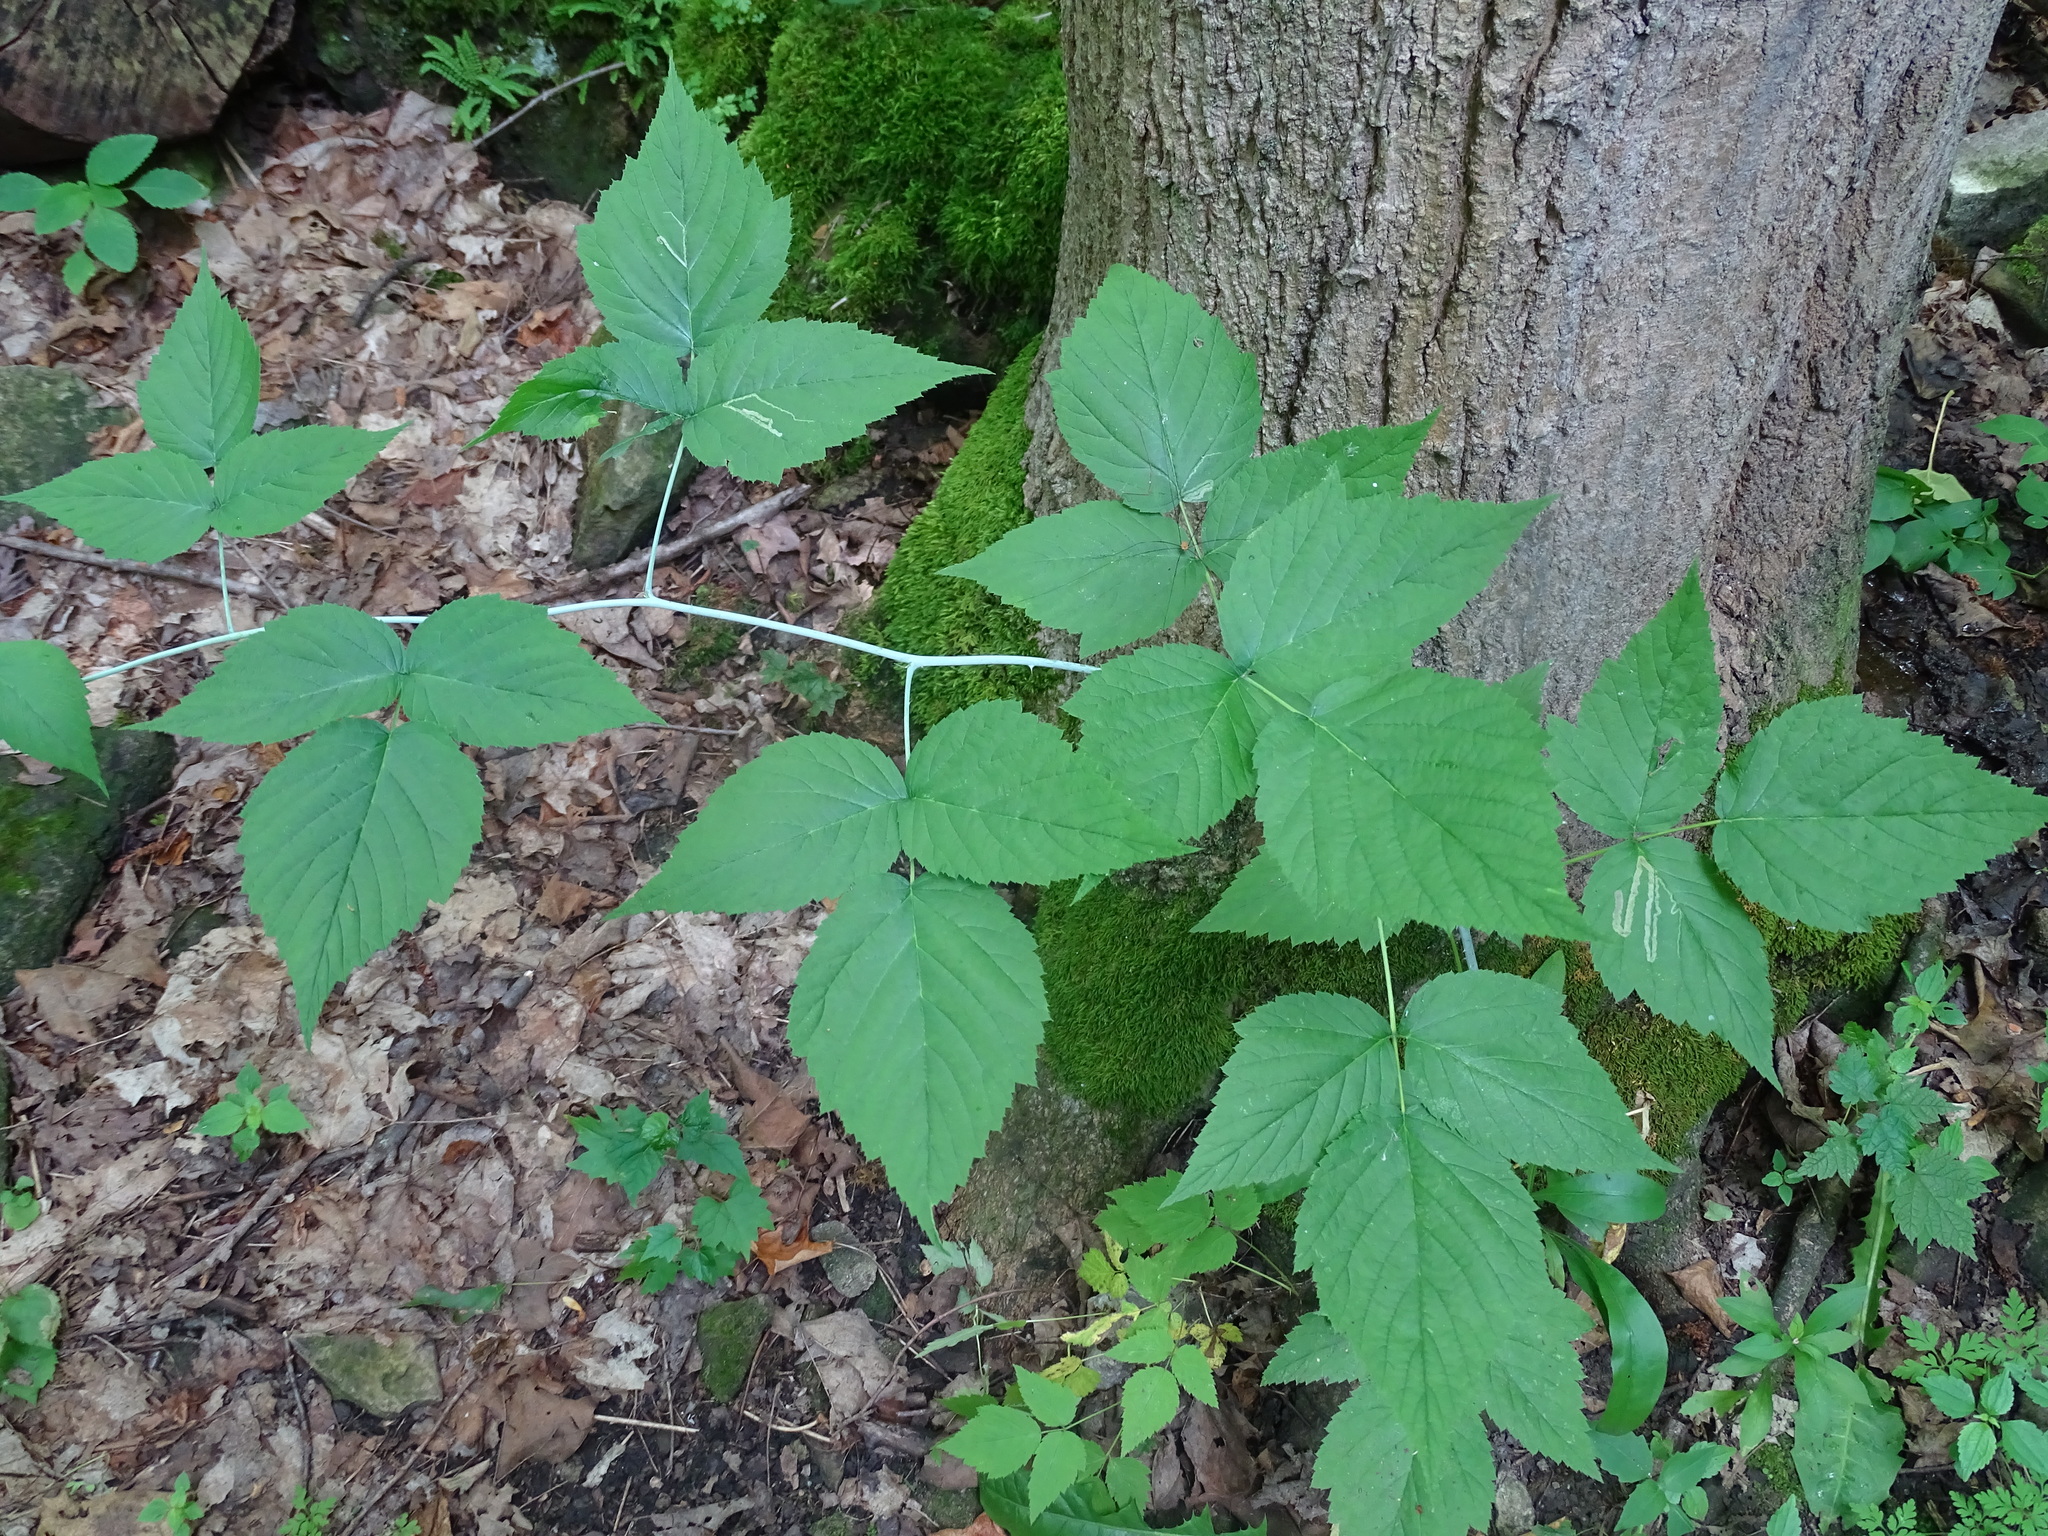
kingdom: Plantae
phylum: Tracheophyta
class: Magnoliopsida
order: Rosales
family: Rosaceae
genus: Rubus
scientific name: Rubus occidentalis
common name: Black raspberry
